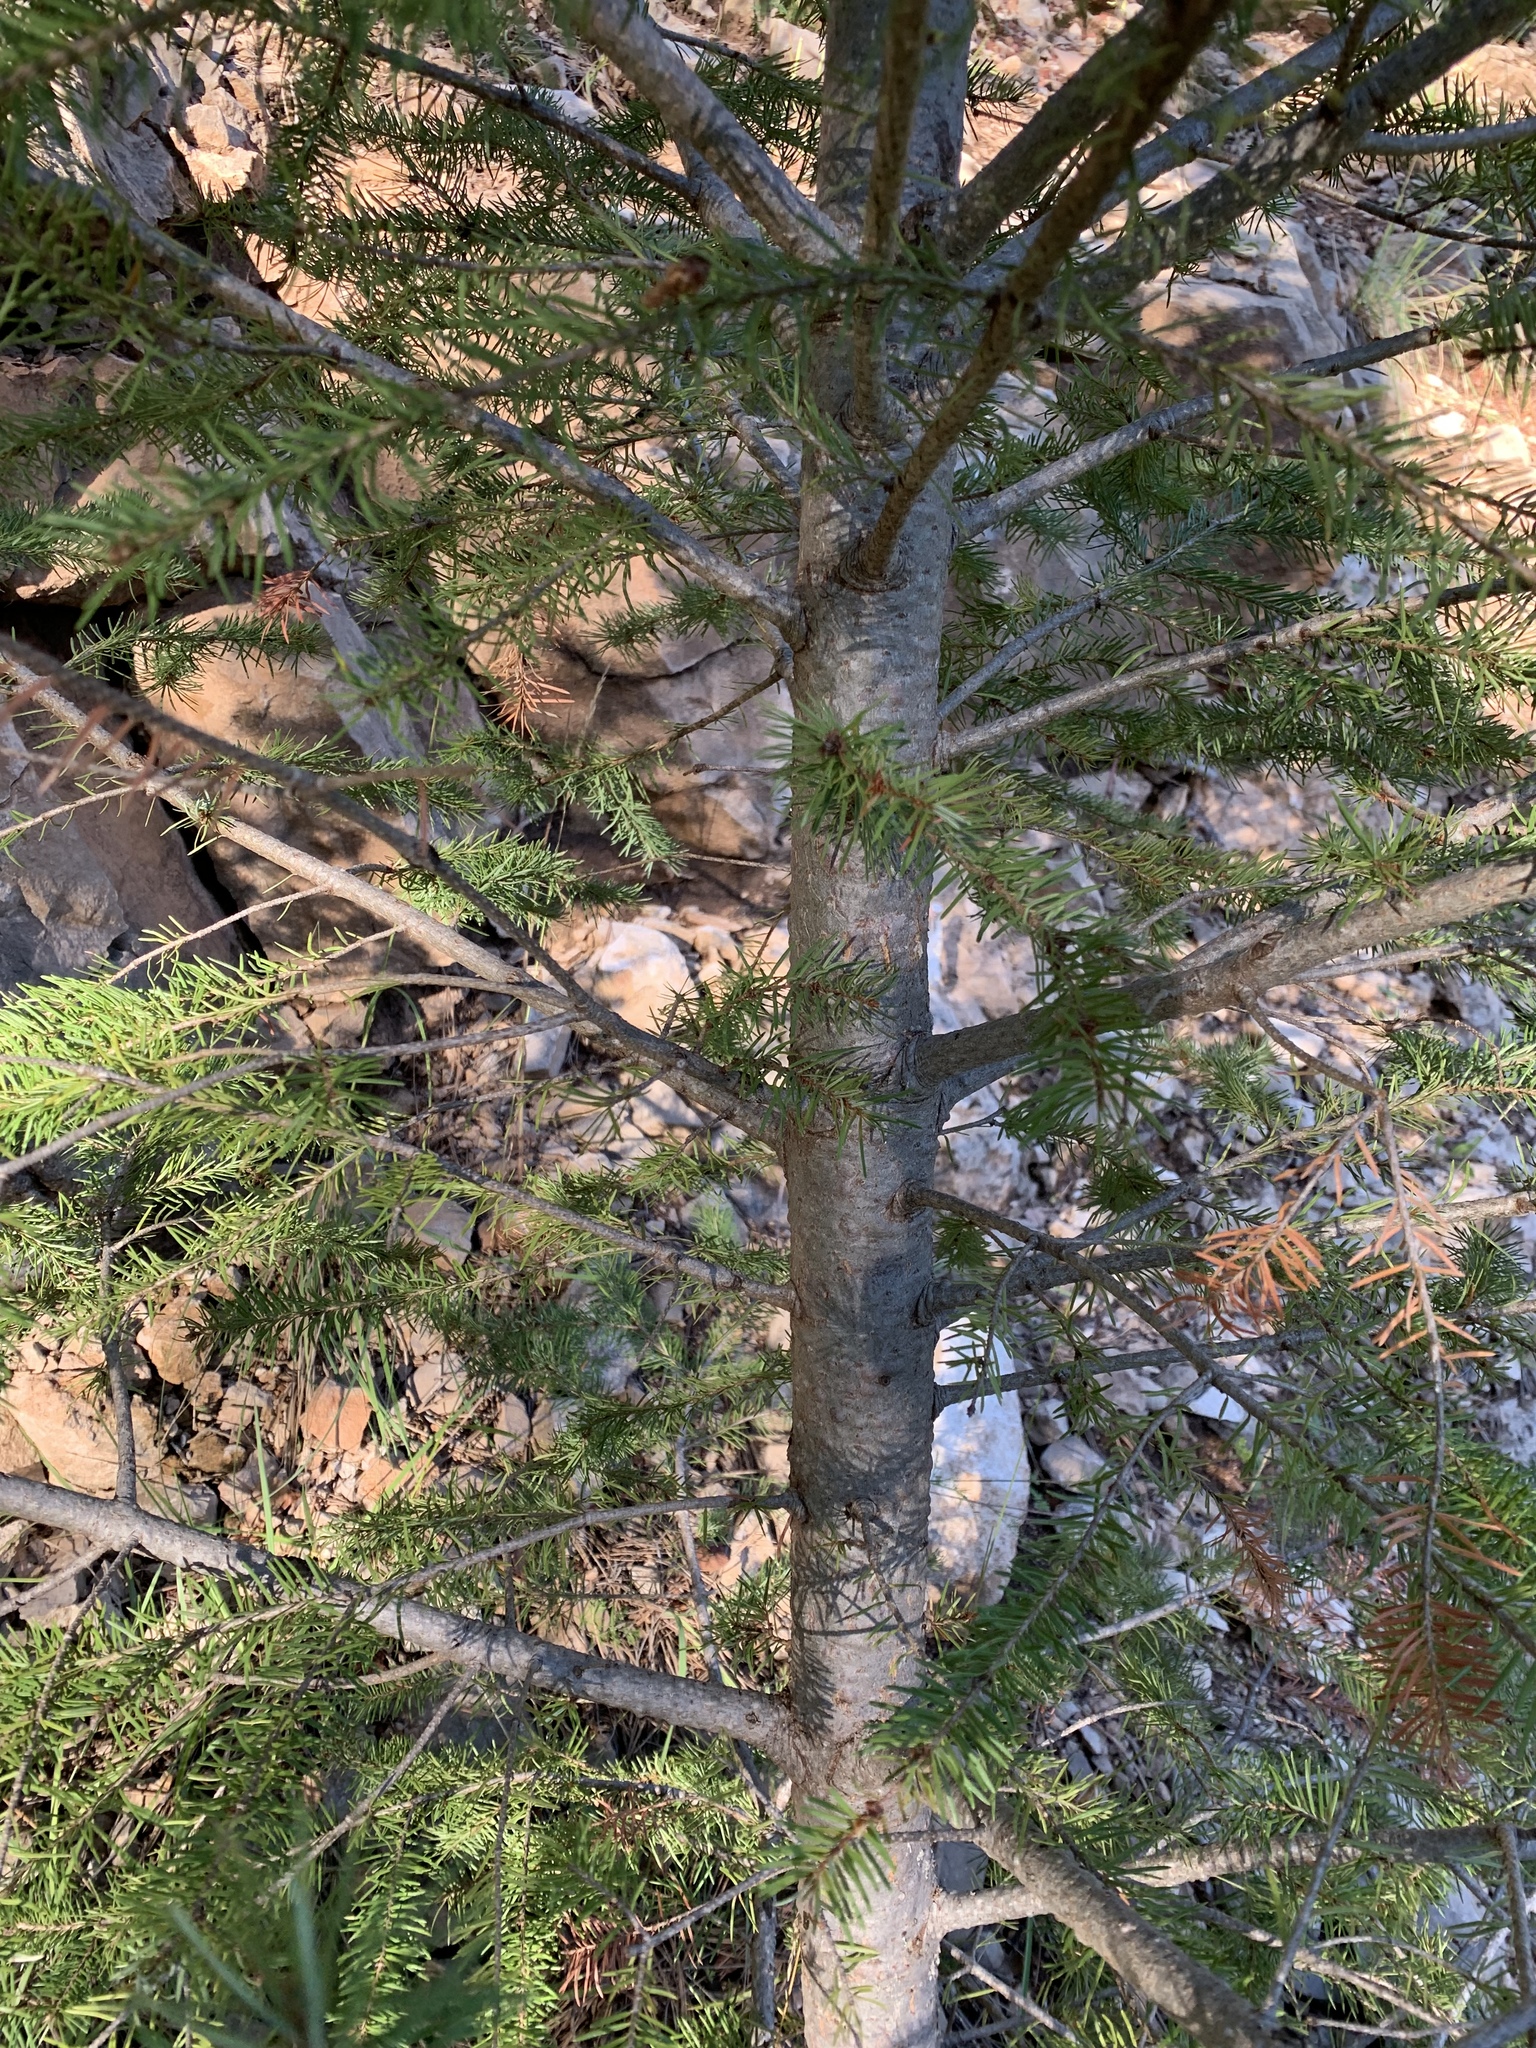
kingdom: Plantae
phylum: Tracheophyta
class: Pinopsida
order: Pinales
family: Pinaceae
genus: Pseudotsuga
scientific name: Pseudotsuga menziesii
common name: Douglas fir
